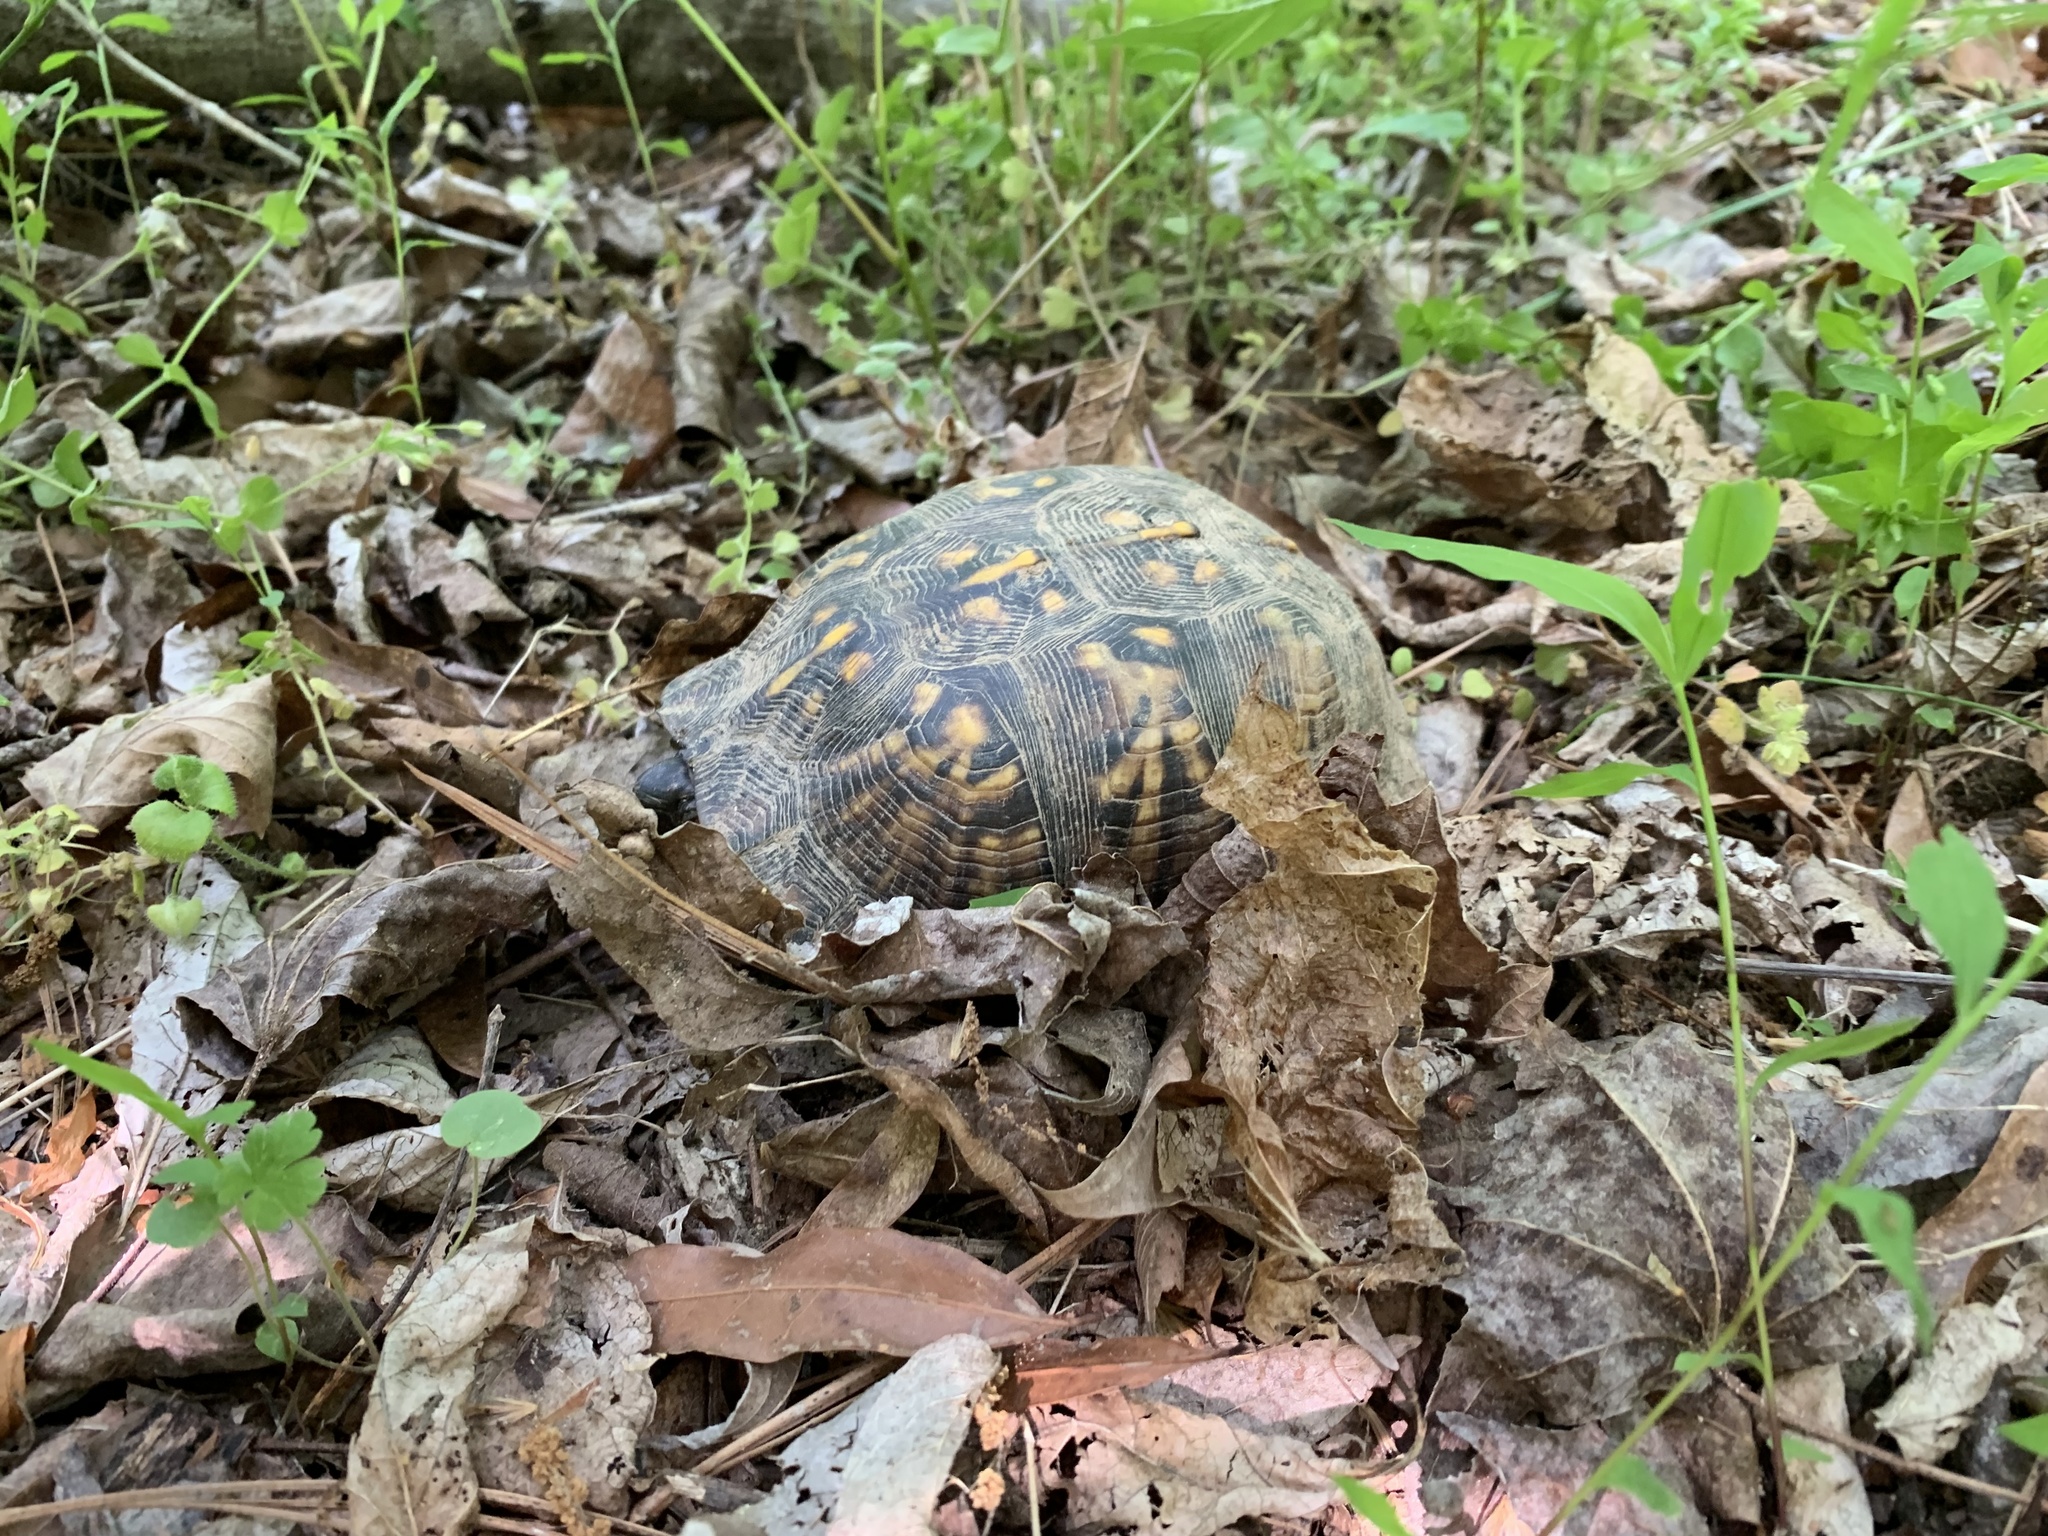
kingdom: Animalia
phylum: Chordata
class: Testudines
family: Emydidae
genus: Terrapene
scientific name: Terrapene carolina
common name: Common box turtle
